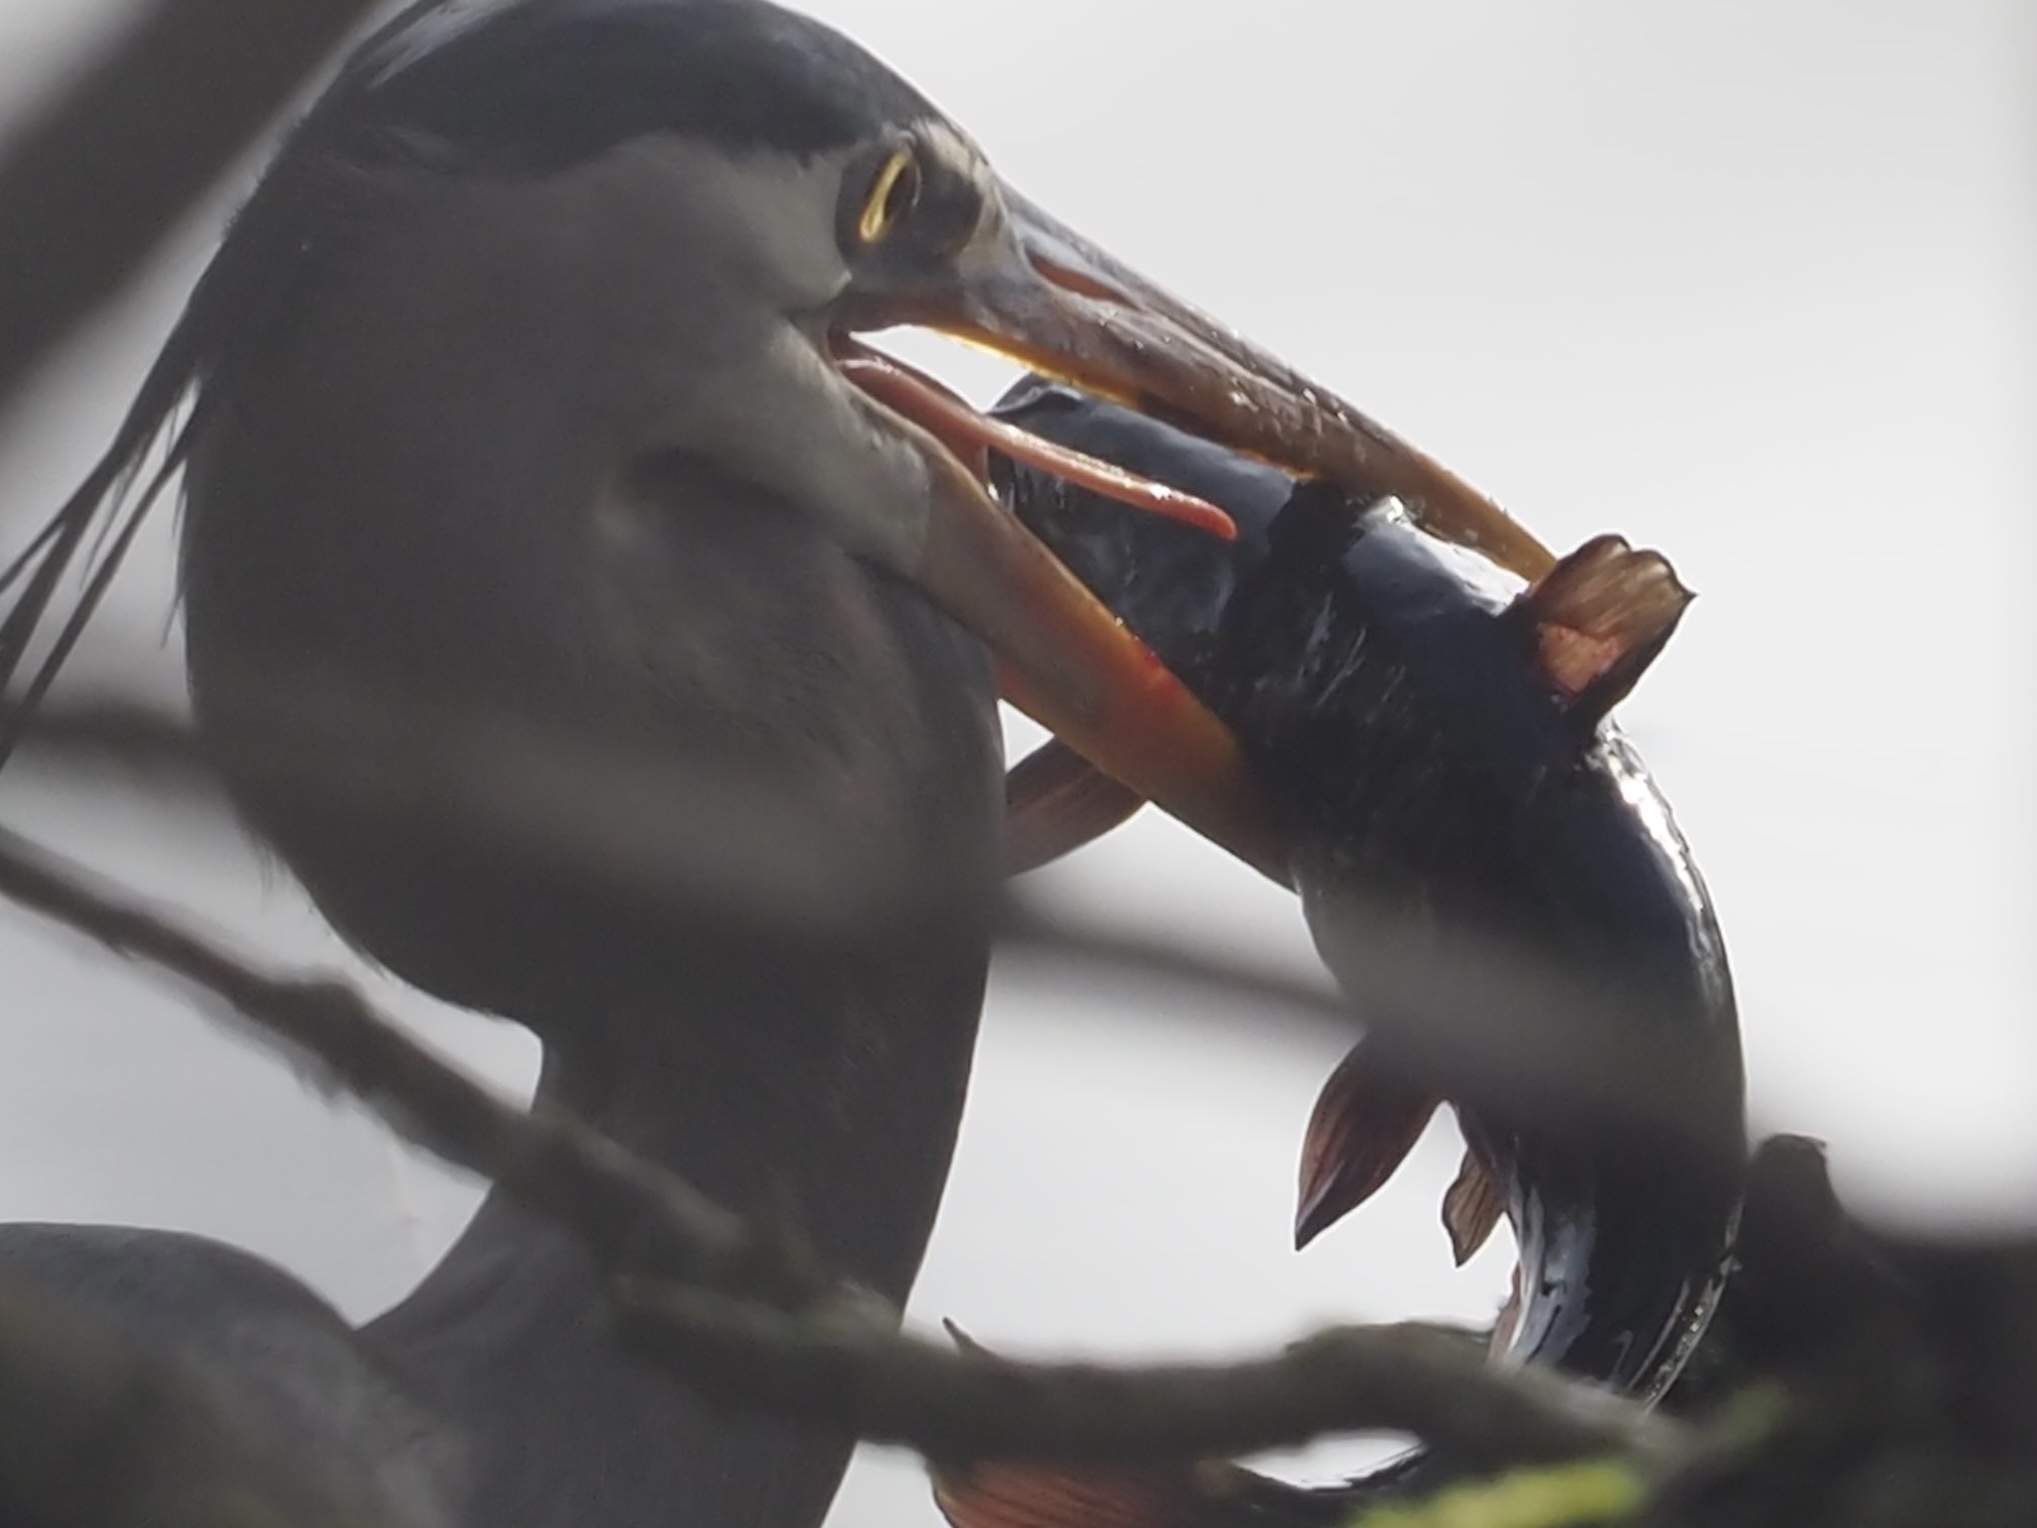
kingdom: Animalia
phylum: Chordata
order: Siluriformes
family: Ictaluridae
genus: Ameiurus
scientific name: Ameiurus nebulosus
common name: Brown bullhead
